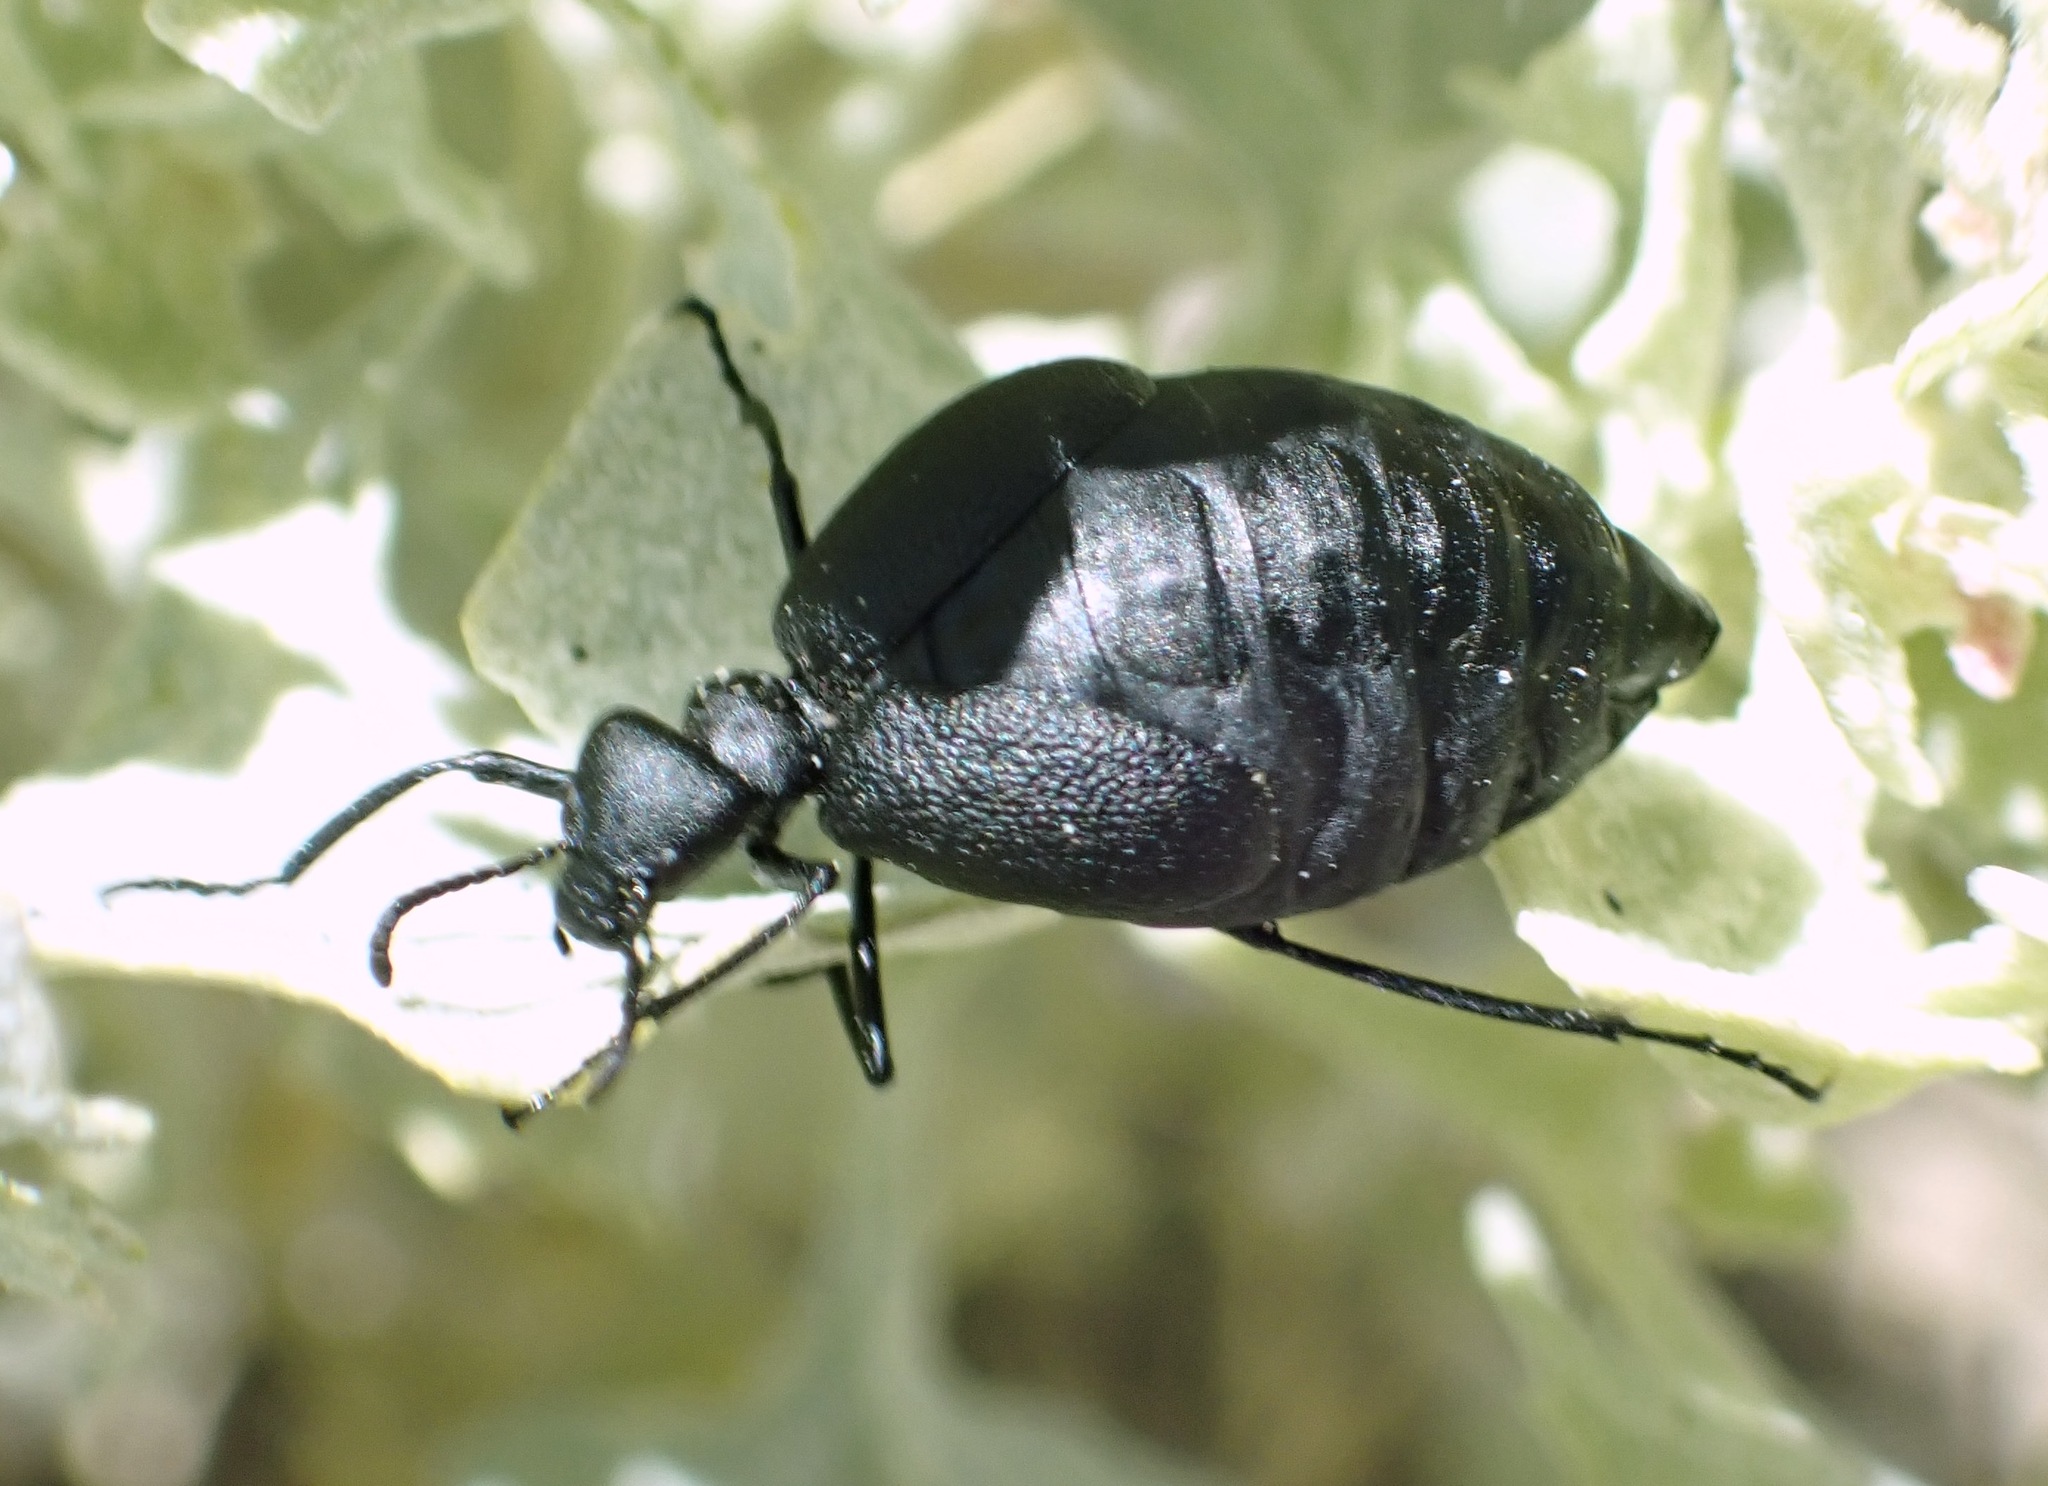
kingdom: Animalia
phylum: Arthropoda
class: Insecta
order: Coleoptera
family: Meloidae
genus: Cordylospasta
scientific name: Cordylospasta opaca
